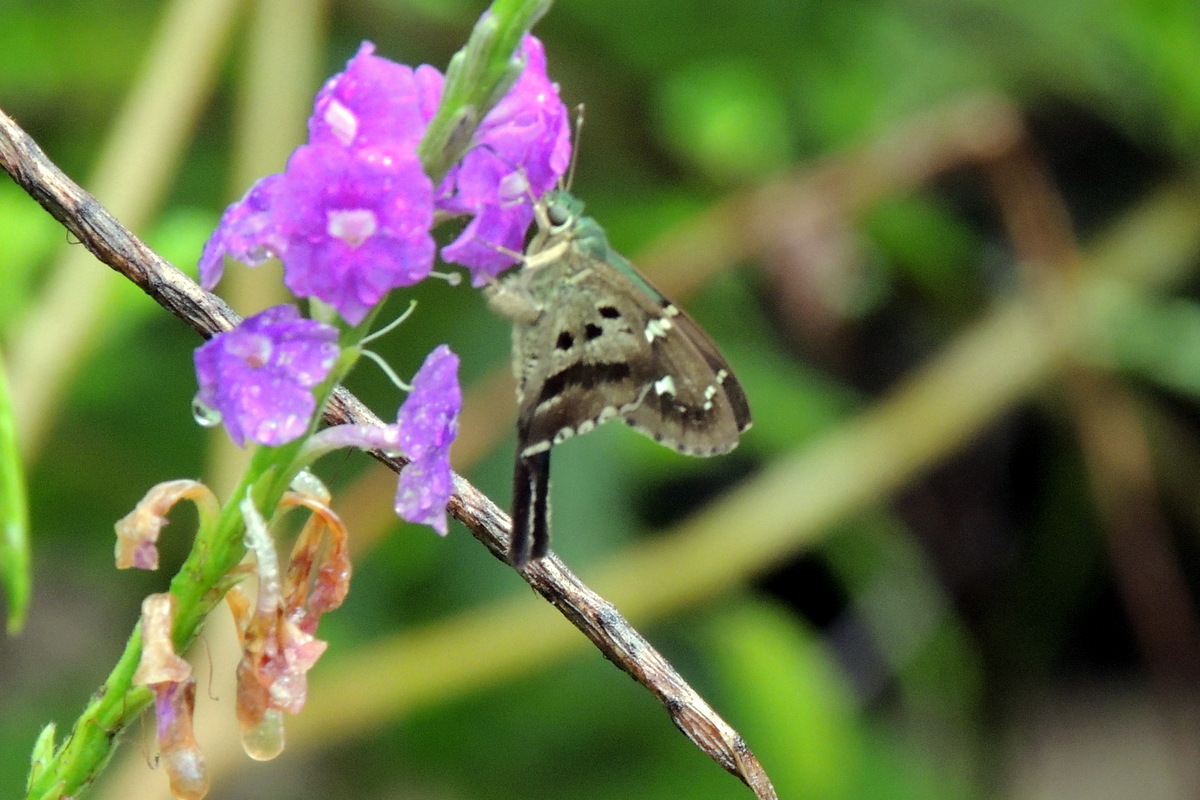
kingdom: Animalia
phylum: Arthropoda
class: Insecta
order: Lepidoptera
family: Hesperiidae
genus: Urbanus
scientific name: Urbanus esmeraldus
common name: Esmeralda longtail
